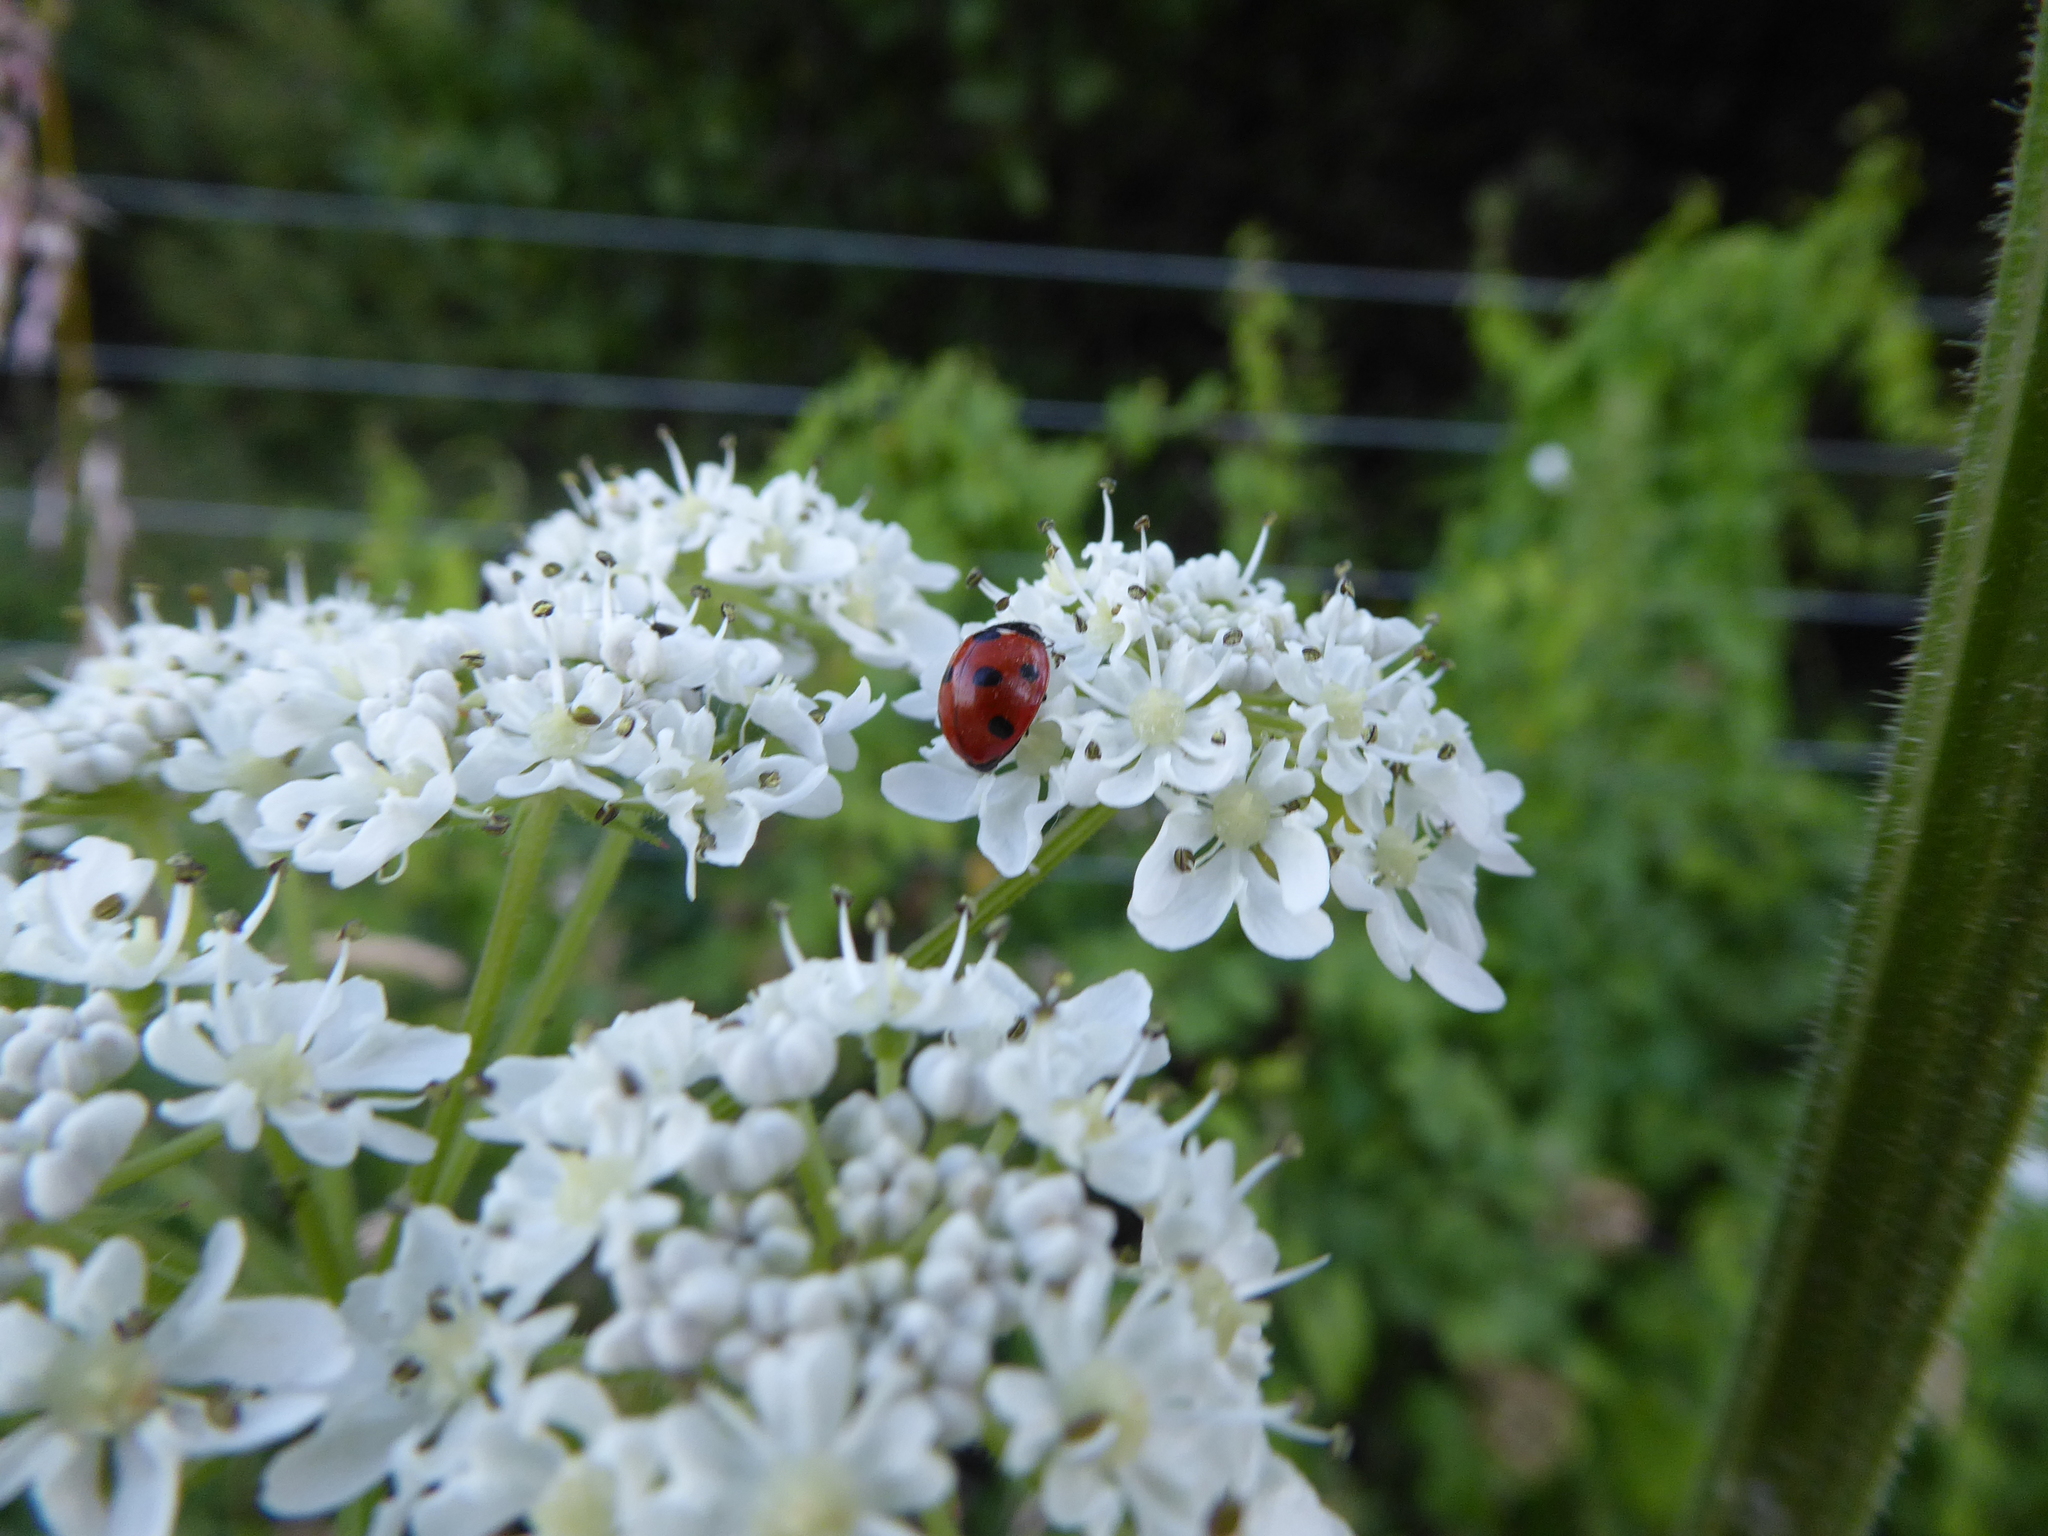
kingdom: Animalia
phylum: Arthropoda
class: Insecta
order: Coleoptera
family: Coccinellidae
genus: Coccinella
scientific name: Coccinella septempunctata
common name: Sevenspotted lady beetle
